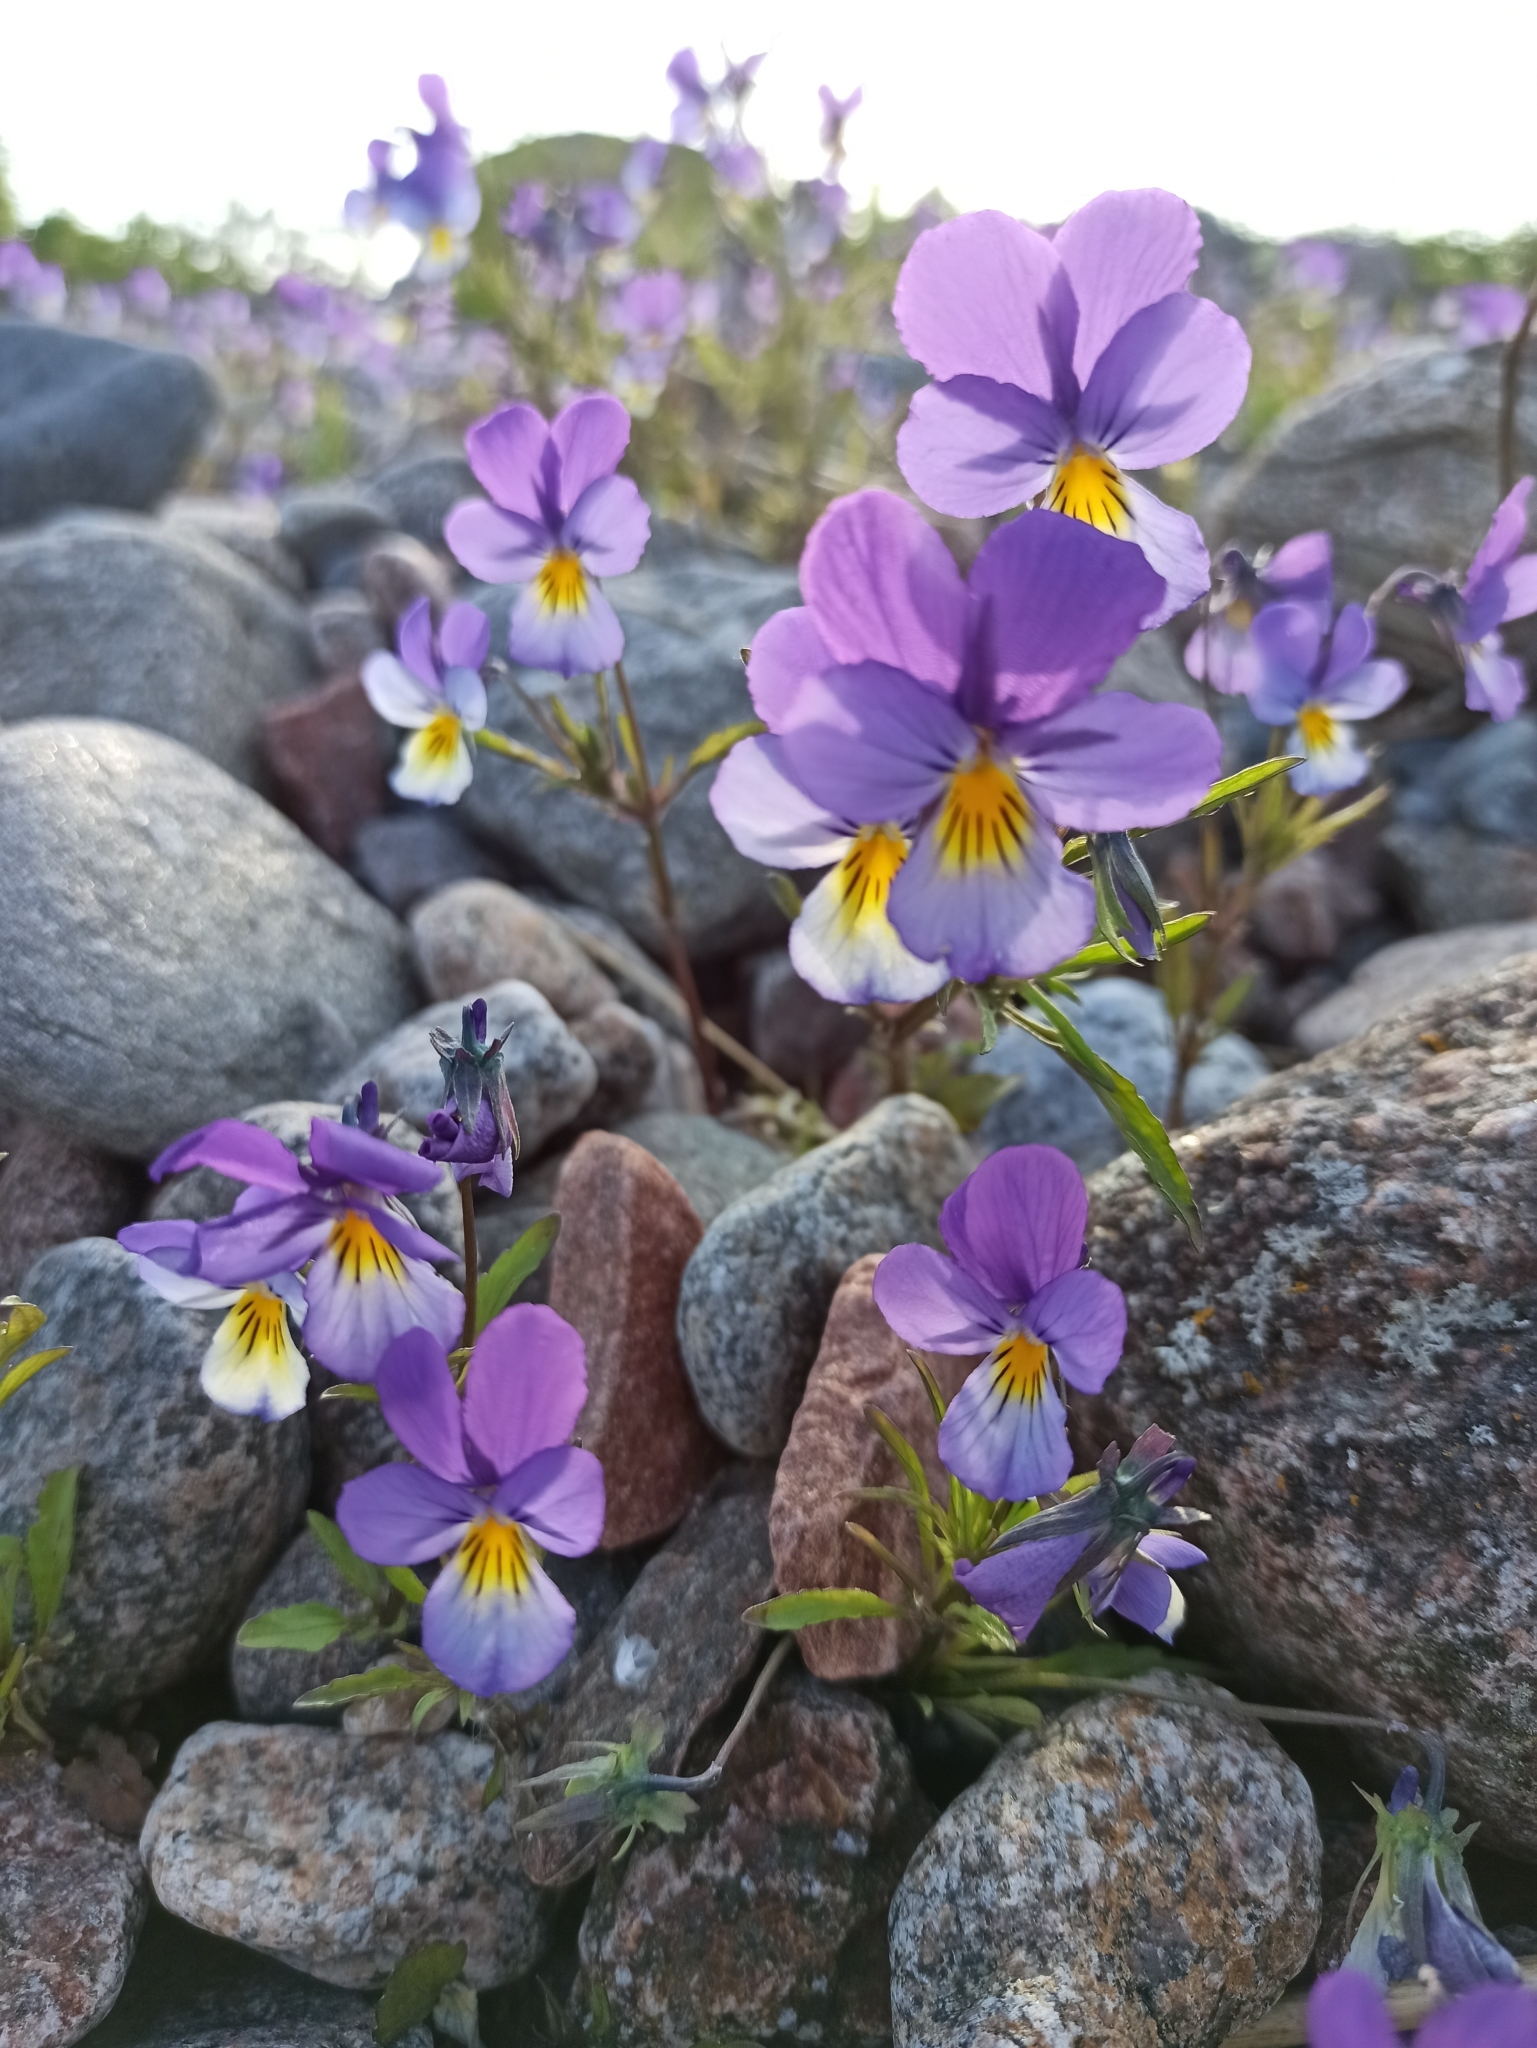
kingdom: Plantae
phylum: Tracheophyta
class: Magnoliopsida
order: Malpighiales
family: Violaceae
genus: Viola
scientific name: Viola tricolor
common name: Pansy
